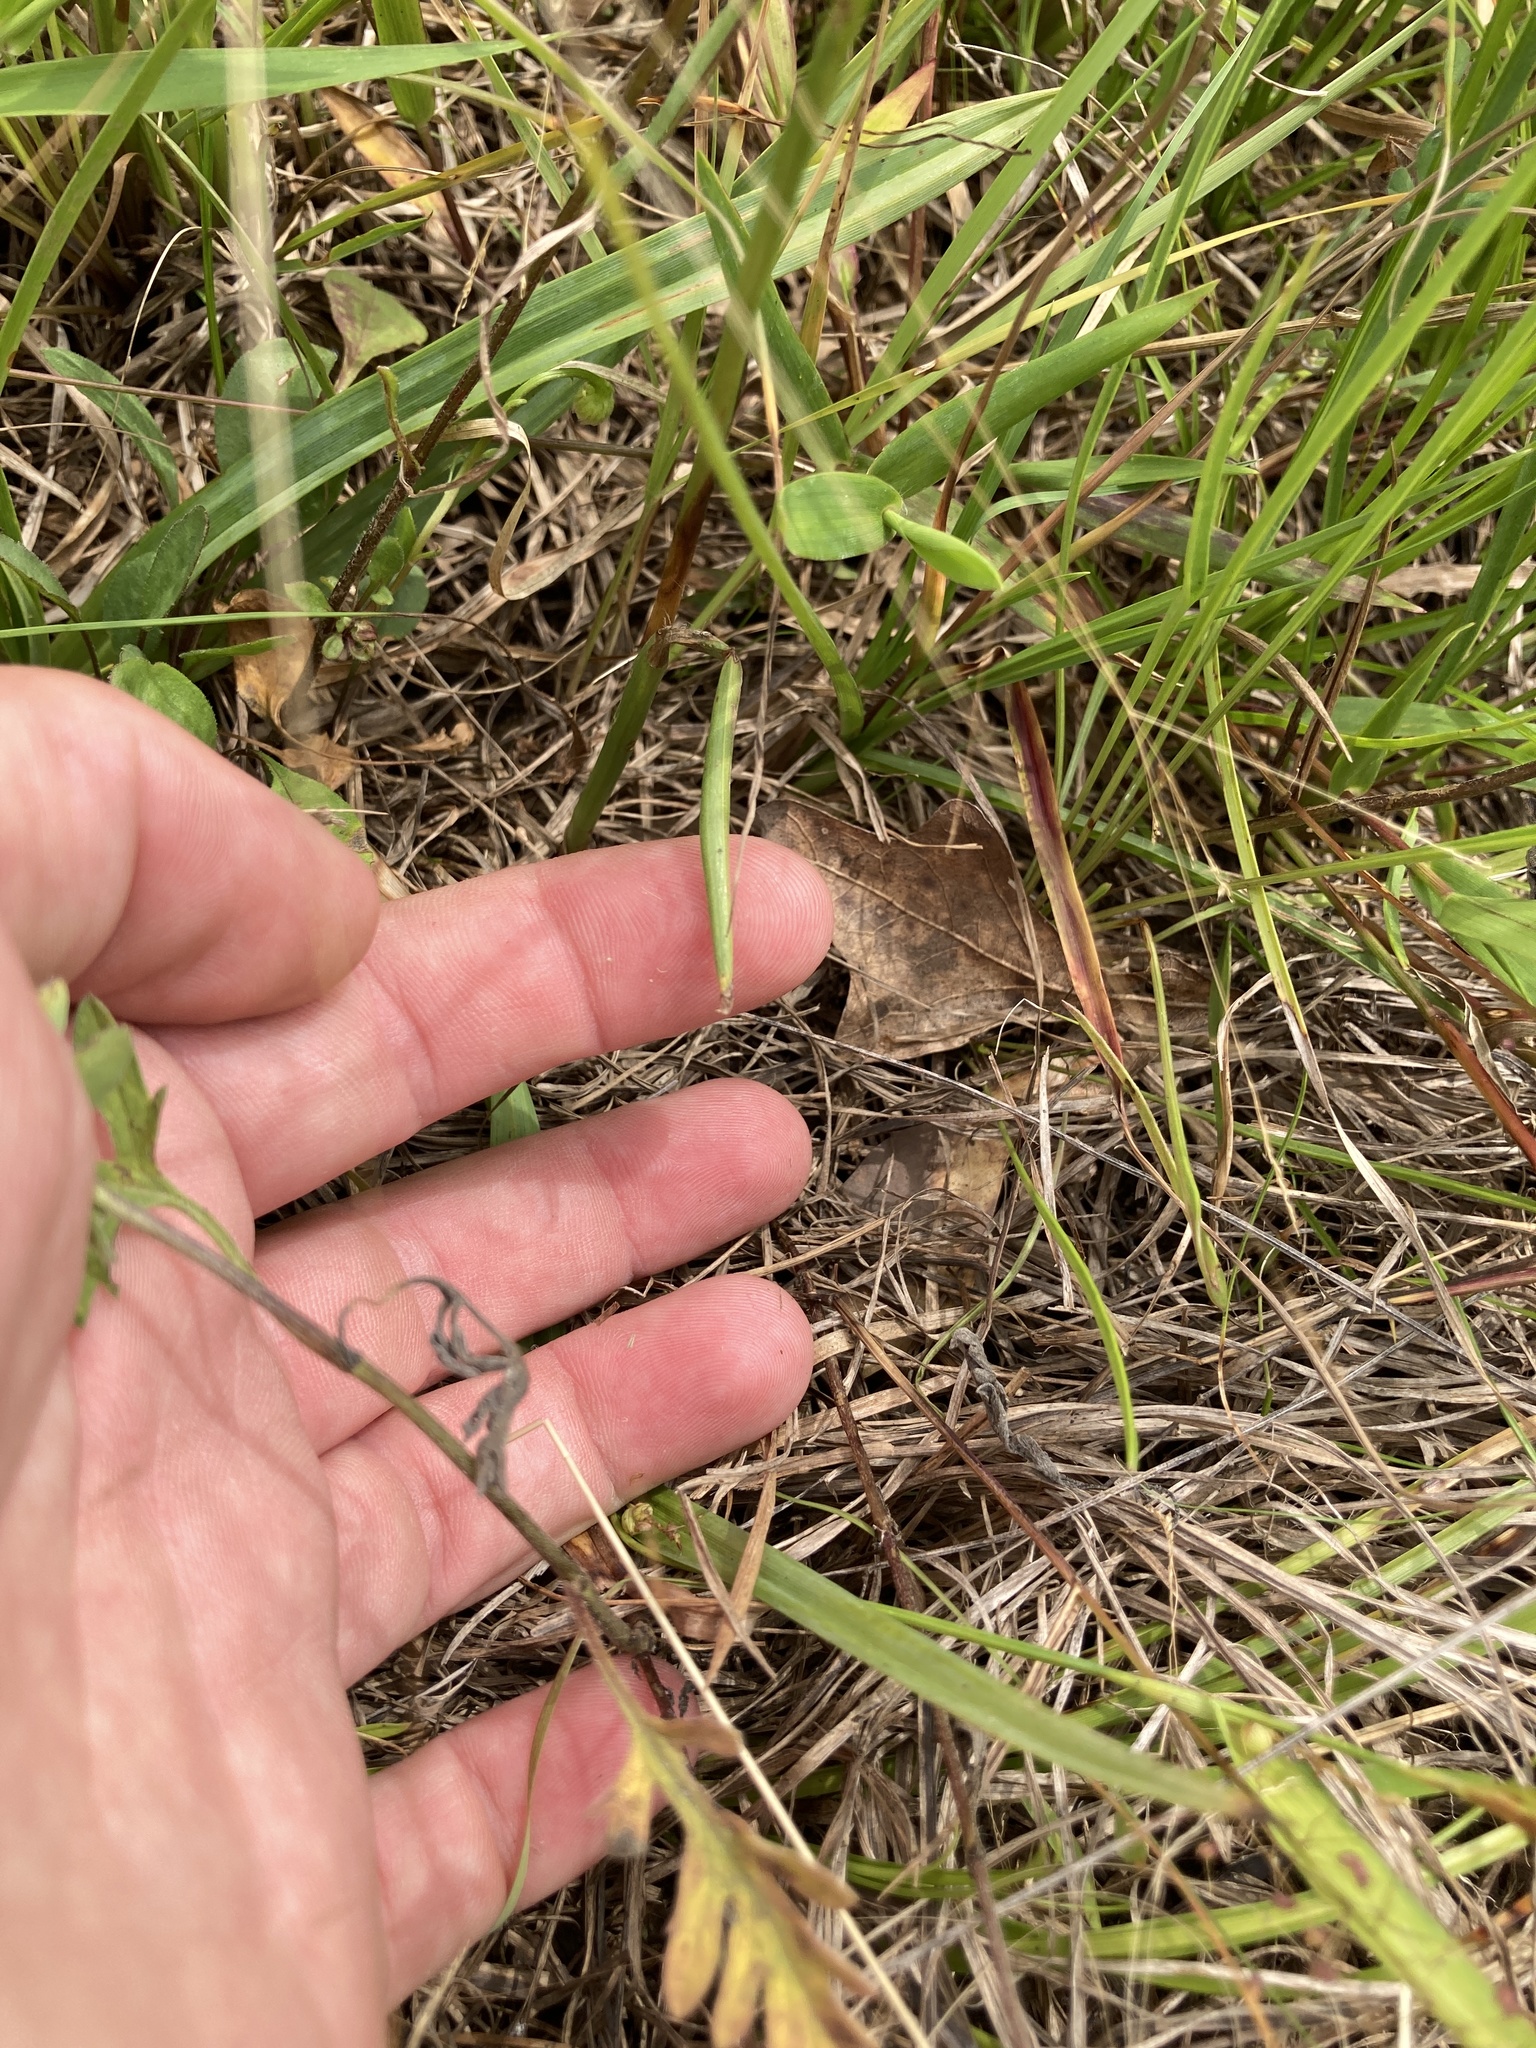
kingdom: Plantae
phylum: Tracheophyta
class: Liliopsida
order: Asparagales
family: Orchidaceae
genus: Spiranthes
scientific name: Spiranthes vernalis
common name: Spring ladies'-tresses
